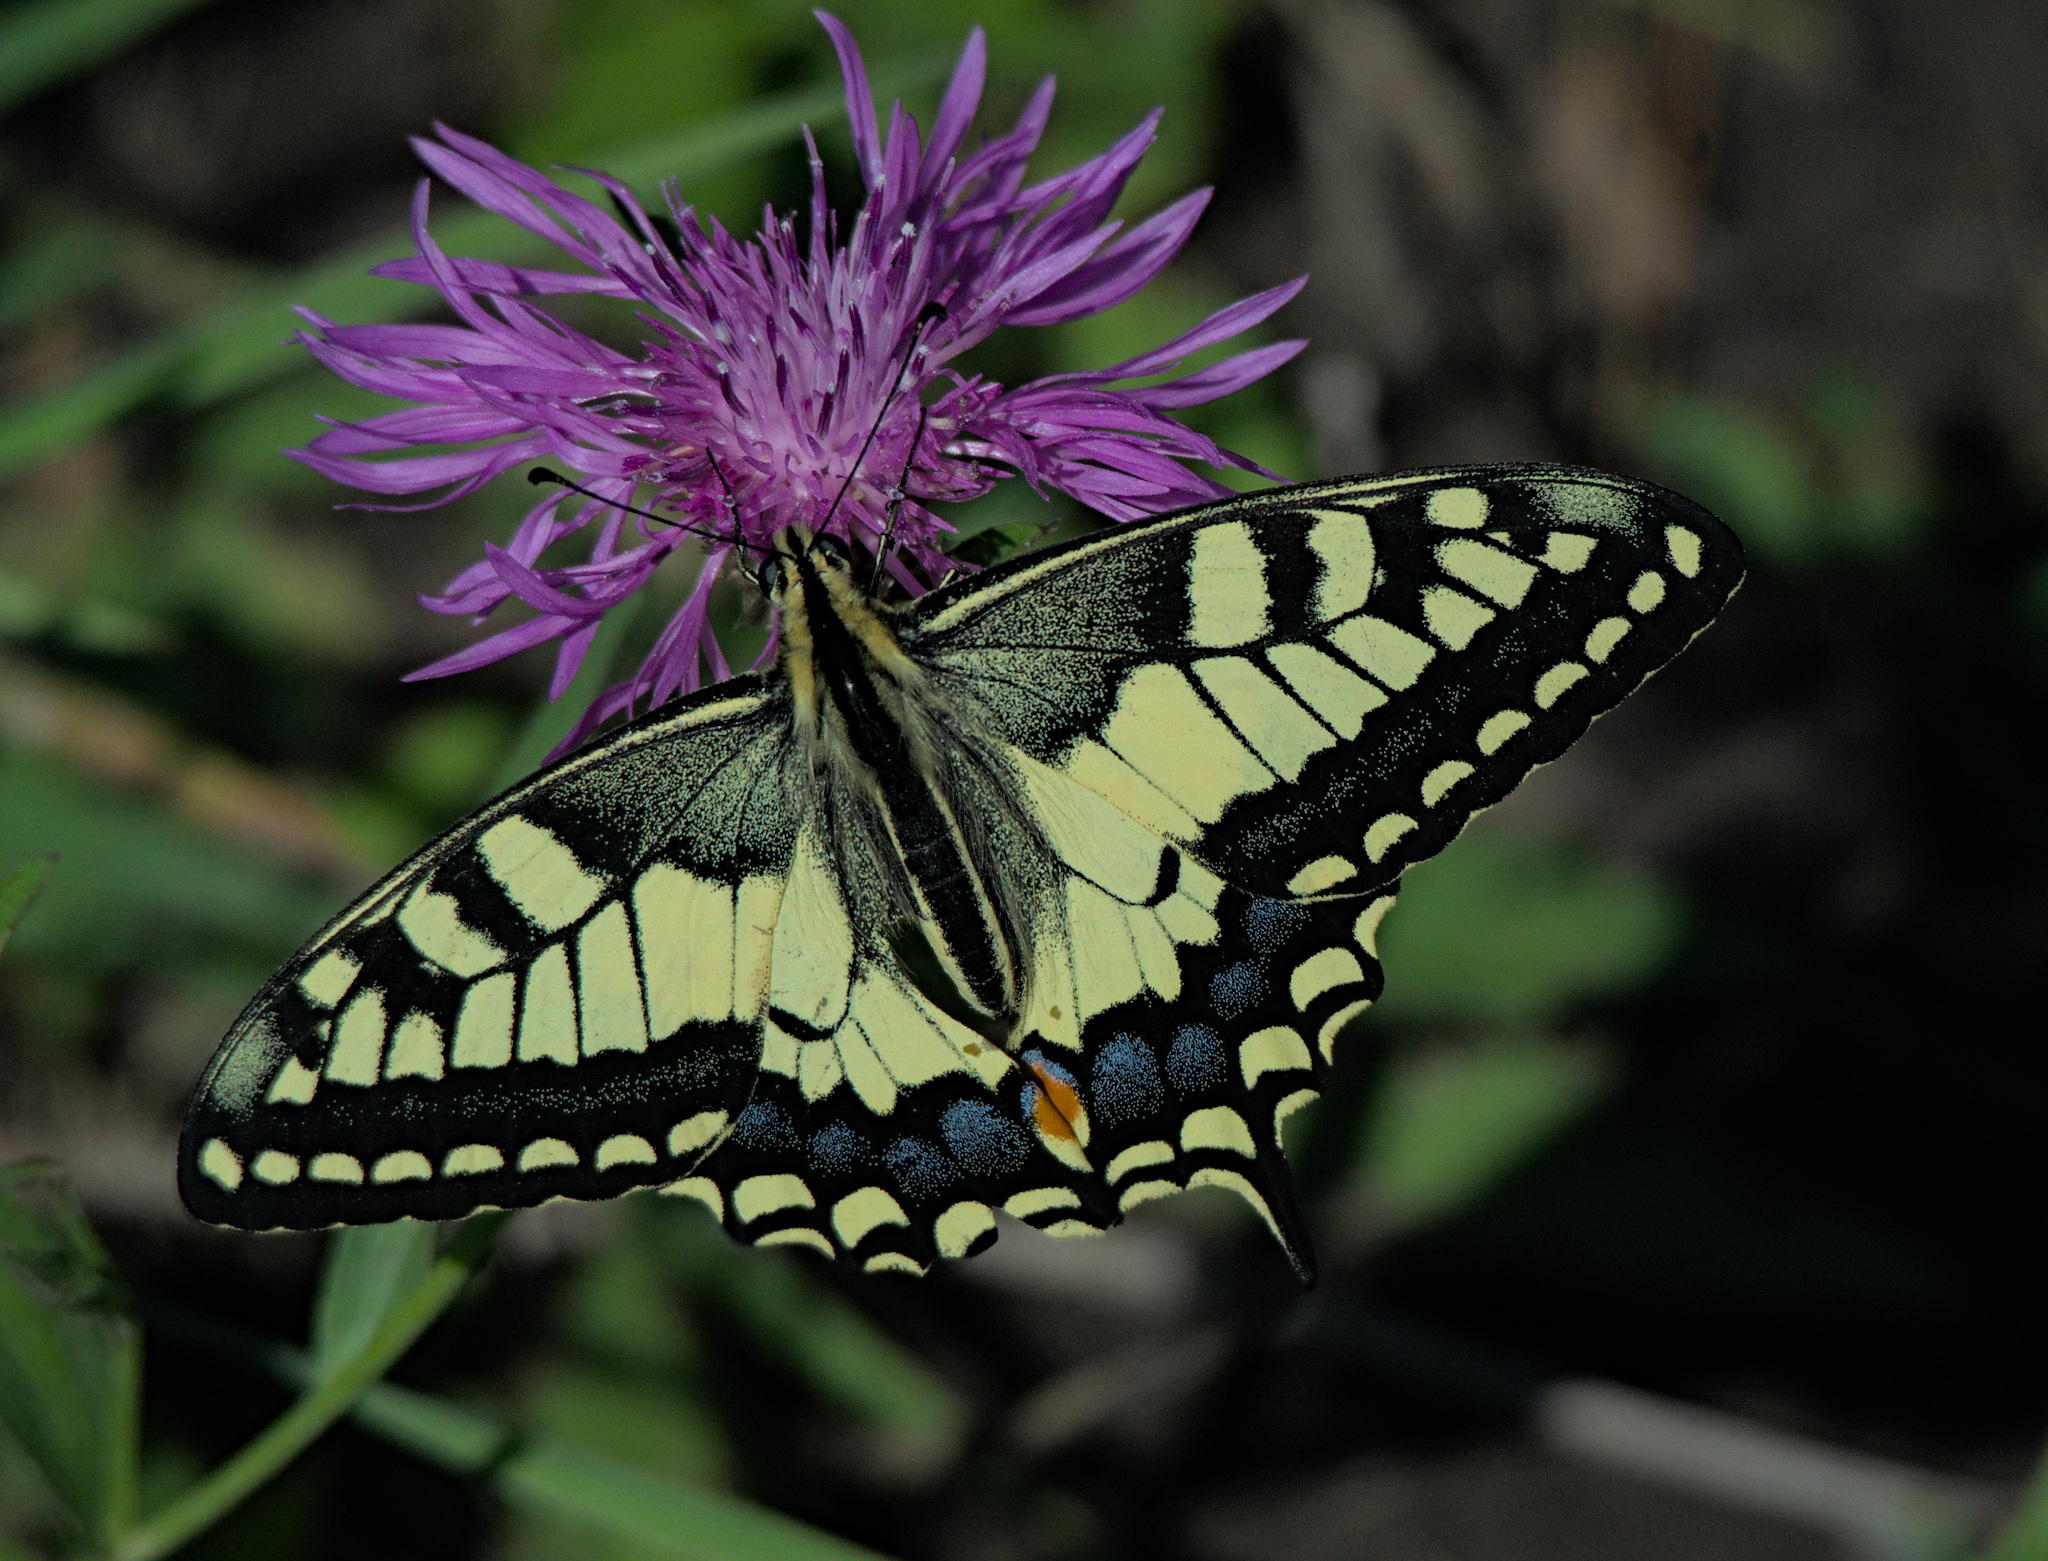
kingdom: Animalia
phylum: Arthropoda
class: Insecta
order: Lepidoptera
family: Papilionidae
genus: Papilio
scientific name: Papilio machaon
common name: Swallowtail
